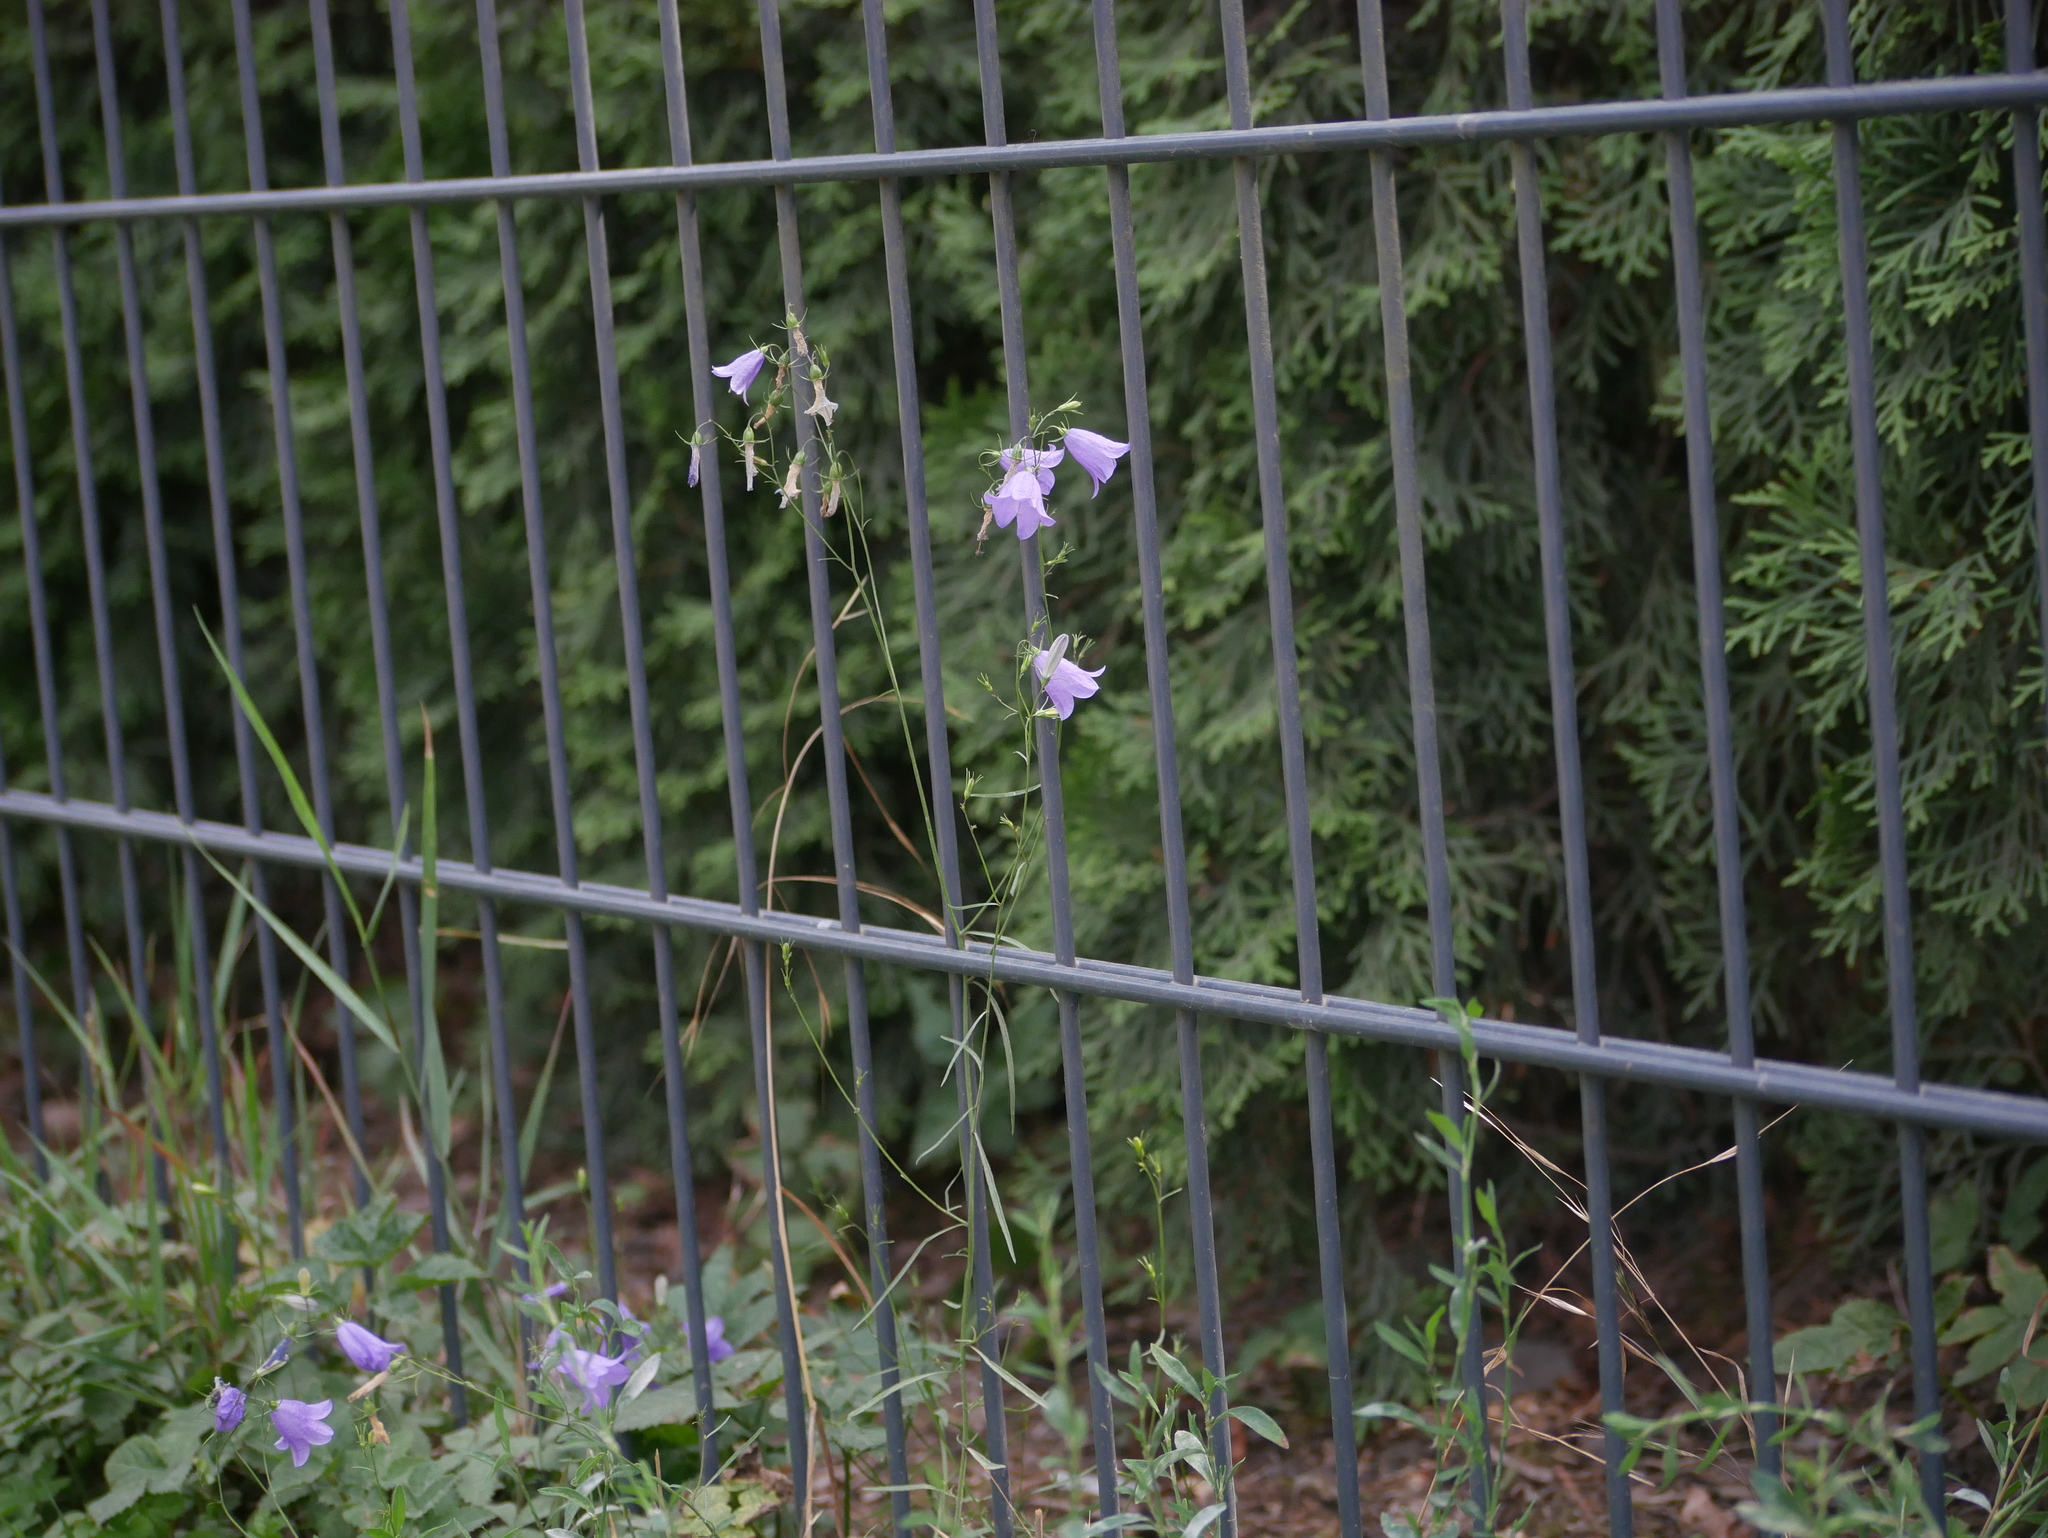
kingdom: Plantae
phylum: Tracheophyta
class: Magnoliopsida
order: Asterales
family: Campanulaceae
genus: Campanula
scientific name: Campanula rotundifolia
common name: Harebell
